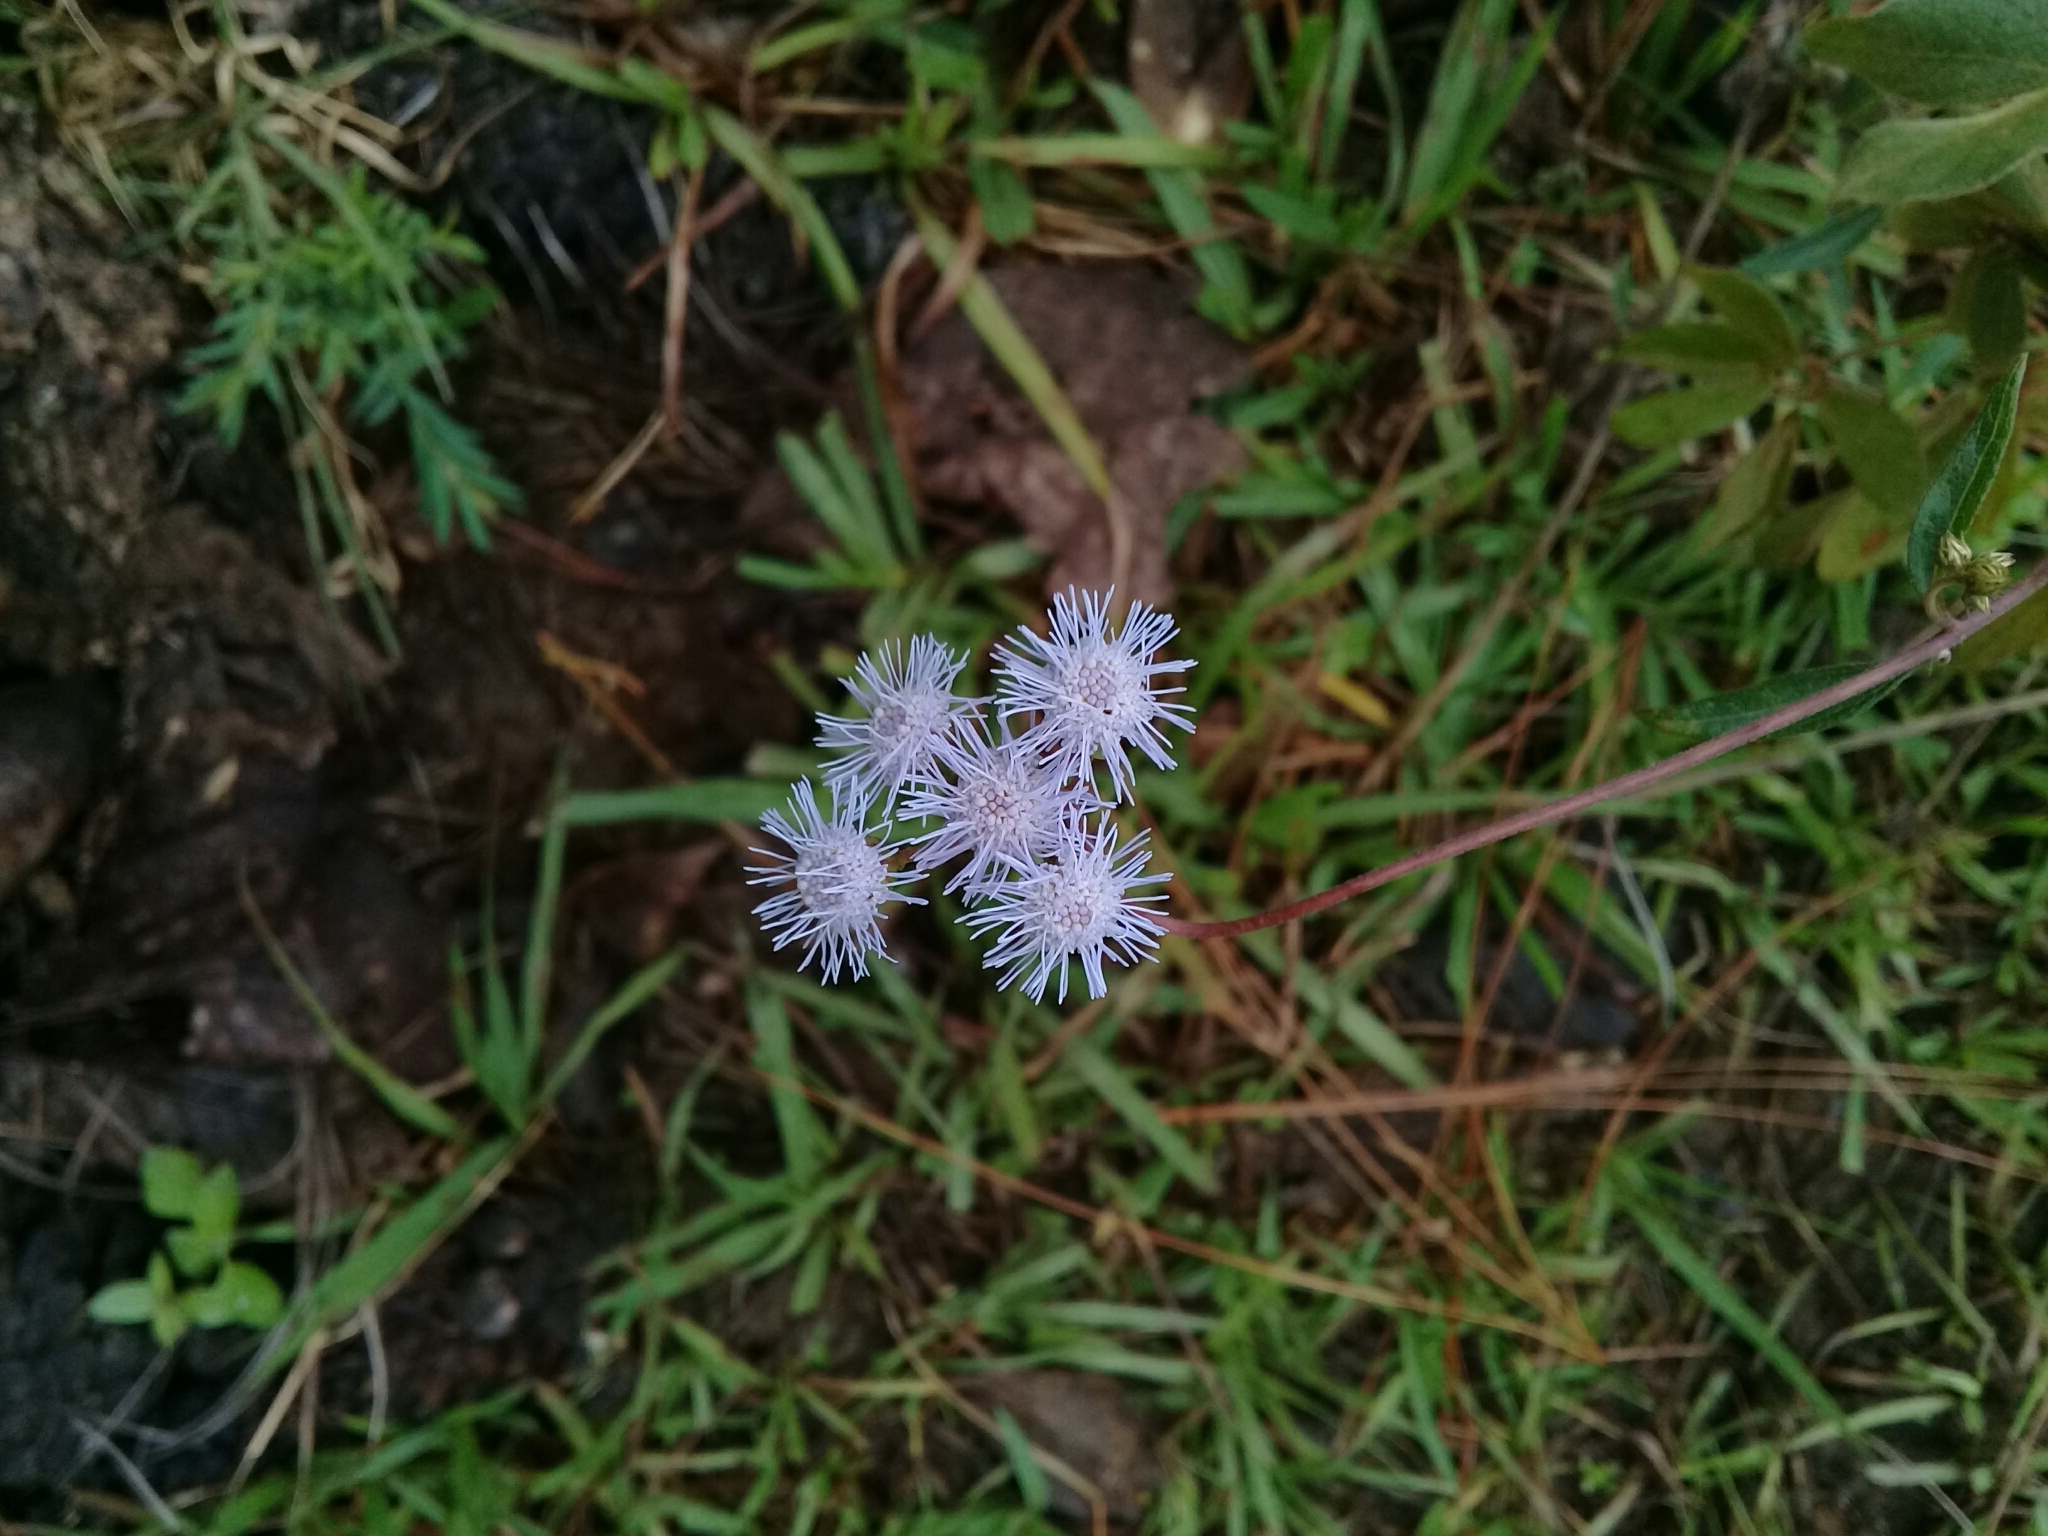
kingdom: Plantae
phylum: Tracheophyta
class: Magnoliopsida
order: Asterales
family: Asteraceae
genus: Ageratum
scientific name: Ageratum corymbosum
